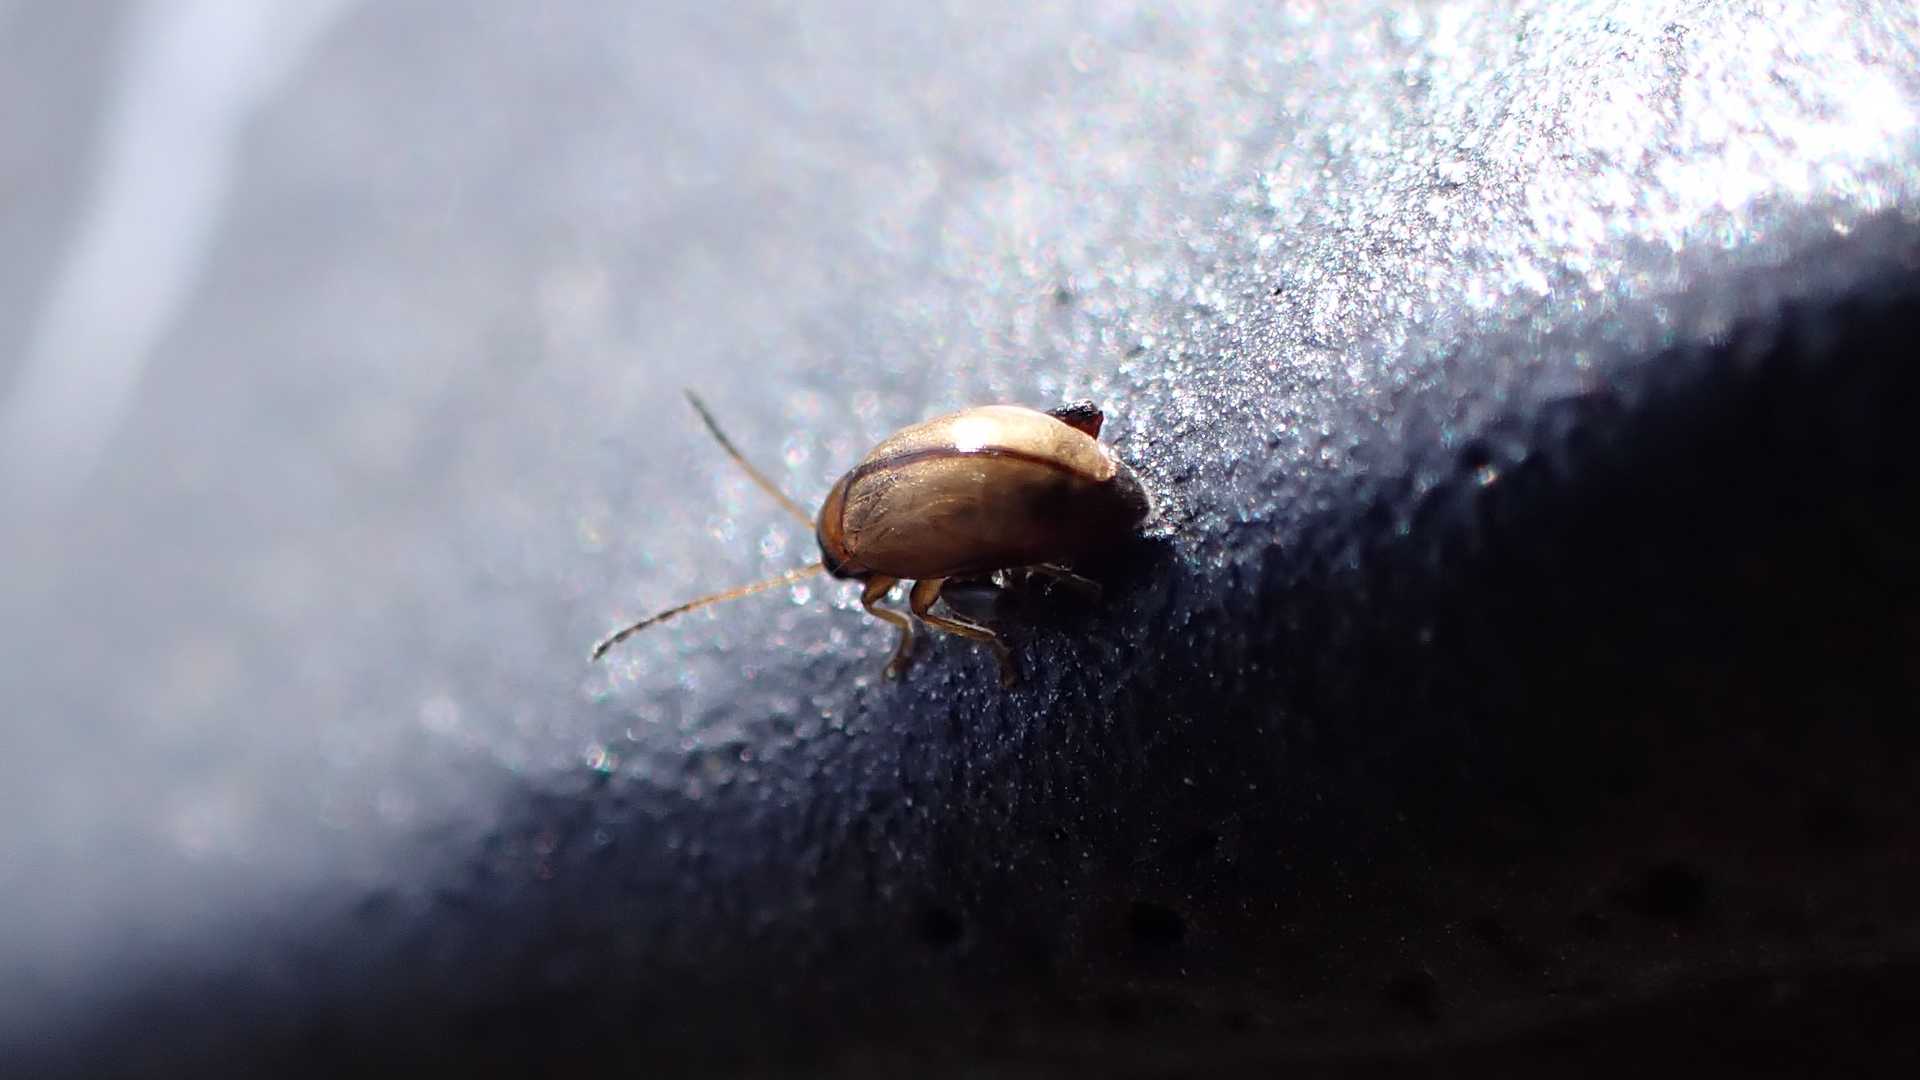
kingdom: Animalia
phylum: Arthropoda
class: Insecta
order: Coleoptera
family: Chrysomelidae
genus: Longitarsus
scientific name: Longitarsus
